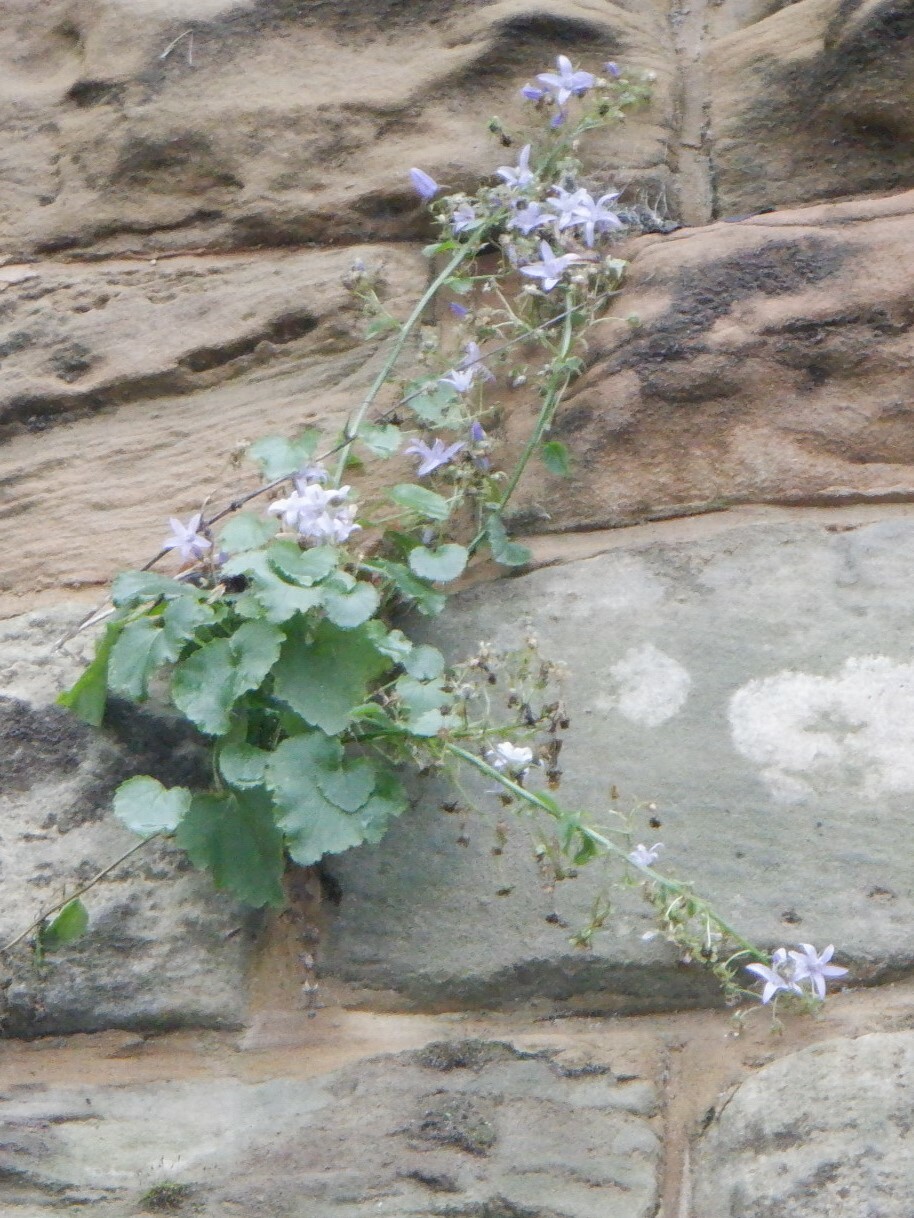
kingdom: Plantae
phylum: Tracheophyta
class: Magnoliopsida
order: Asterales
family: Campanulaceae
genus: Campanula
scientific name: Campanula poscharskyana
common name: Trailing bellflower
